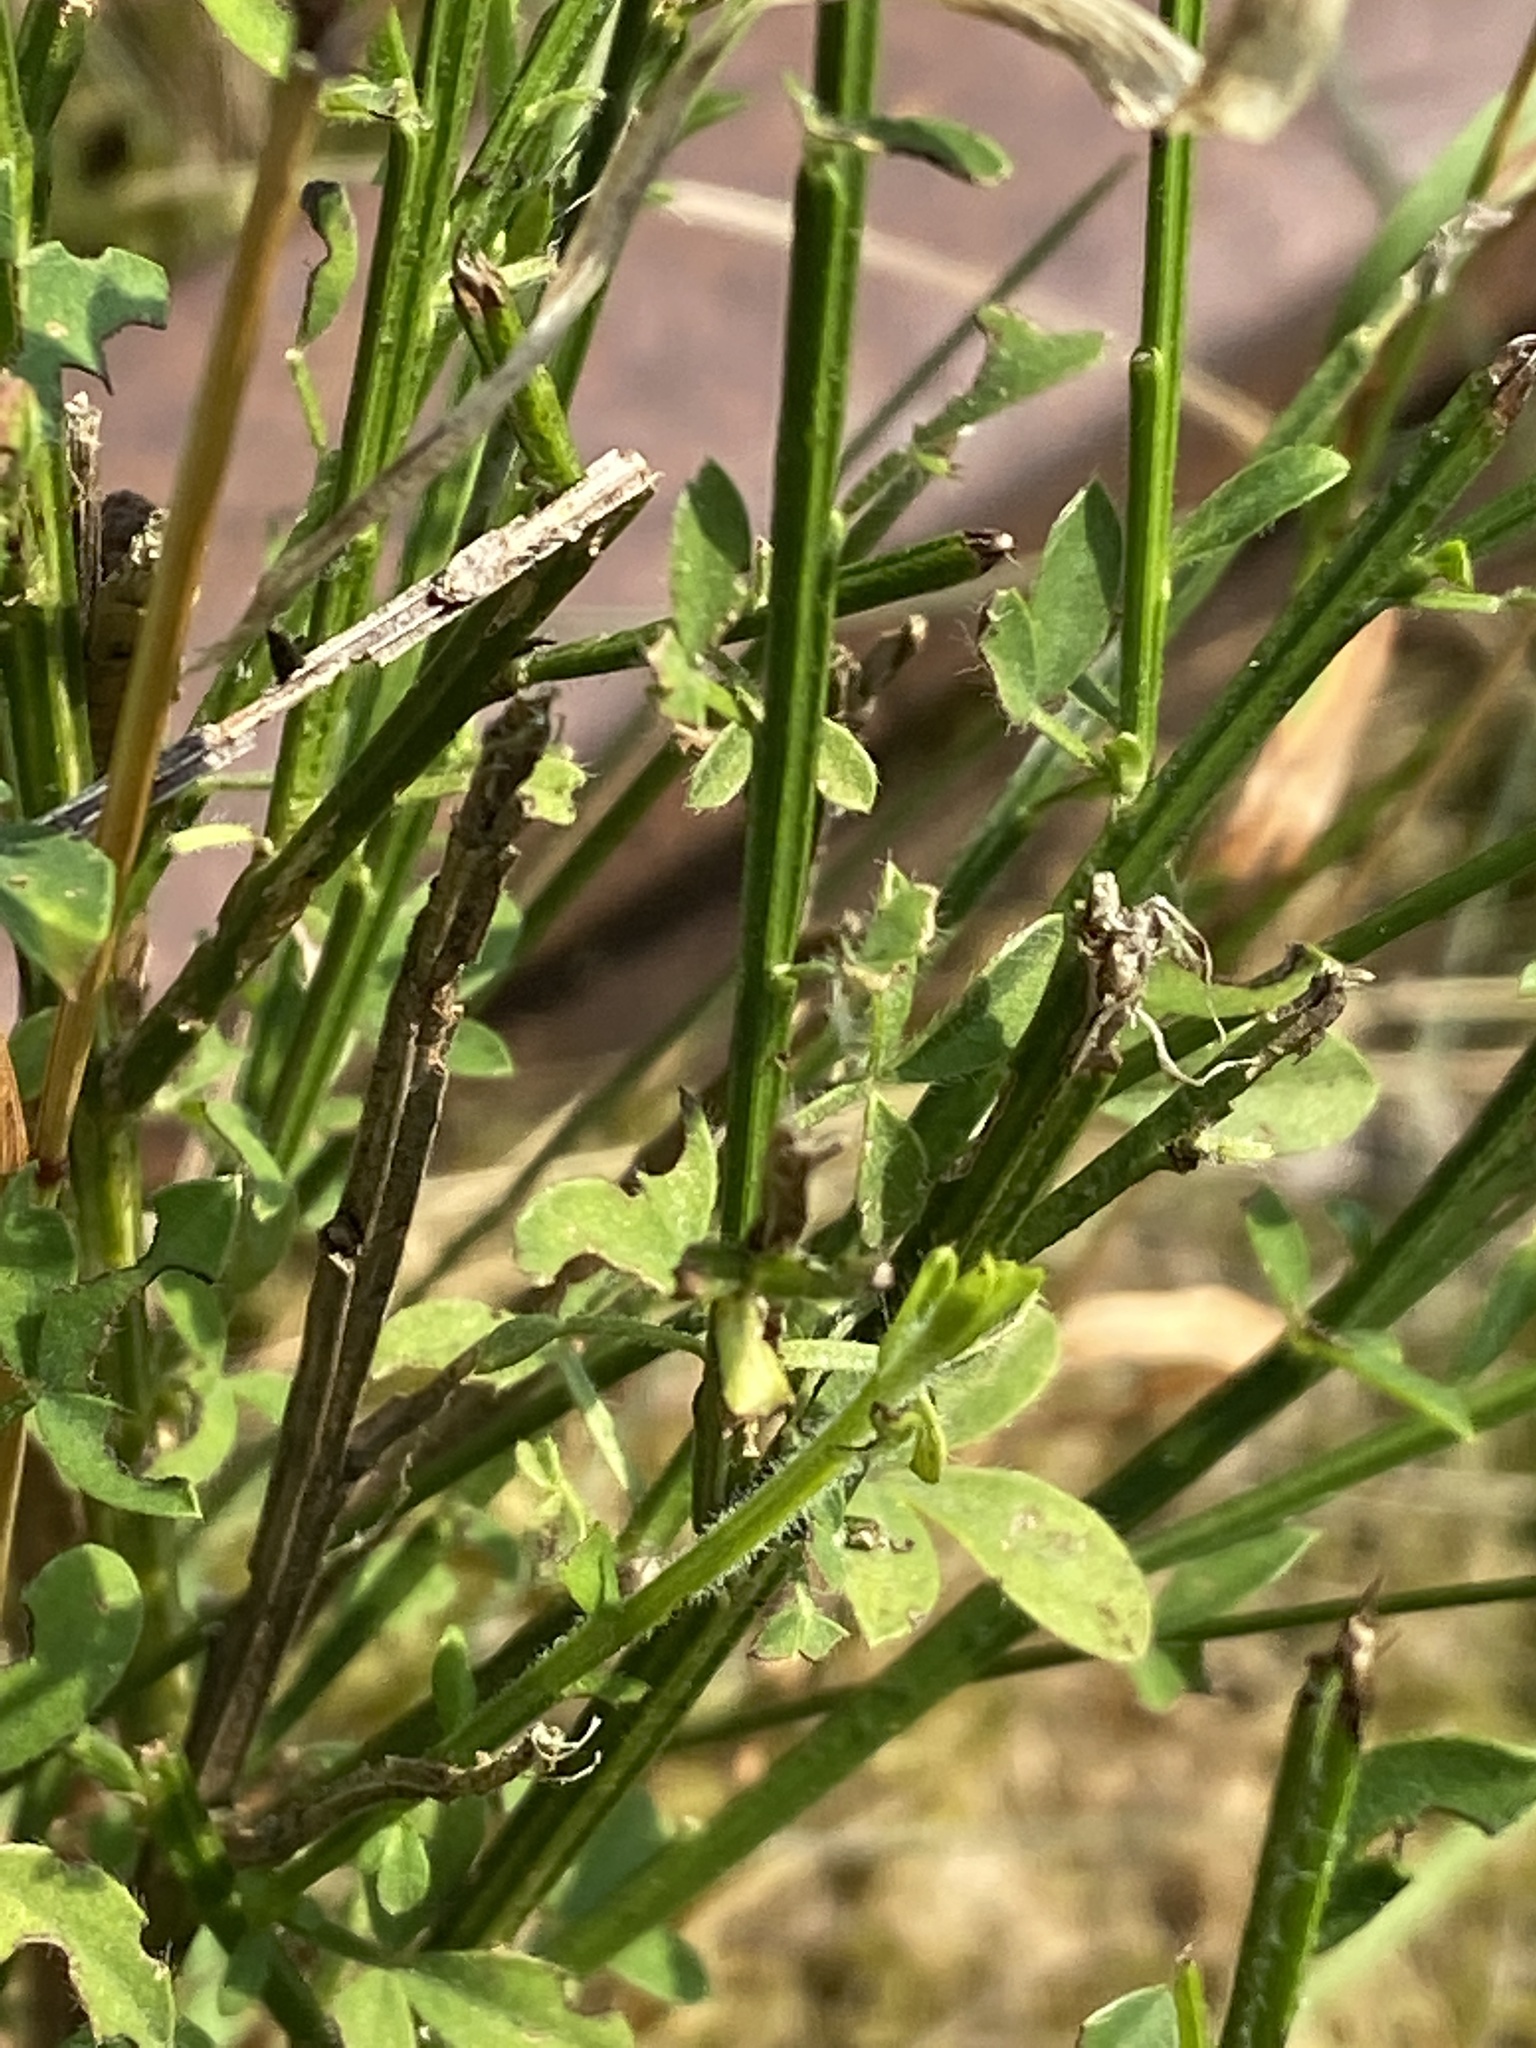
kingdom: Plantae
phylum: Tracheophyta
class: Magnoliopsida
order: Fabales
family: Fabaceae
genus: Cytisus
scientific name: Cytisus scoparius
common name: Scotch broom
